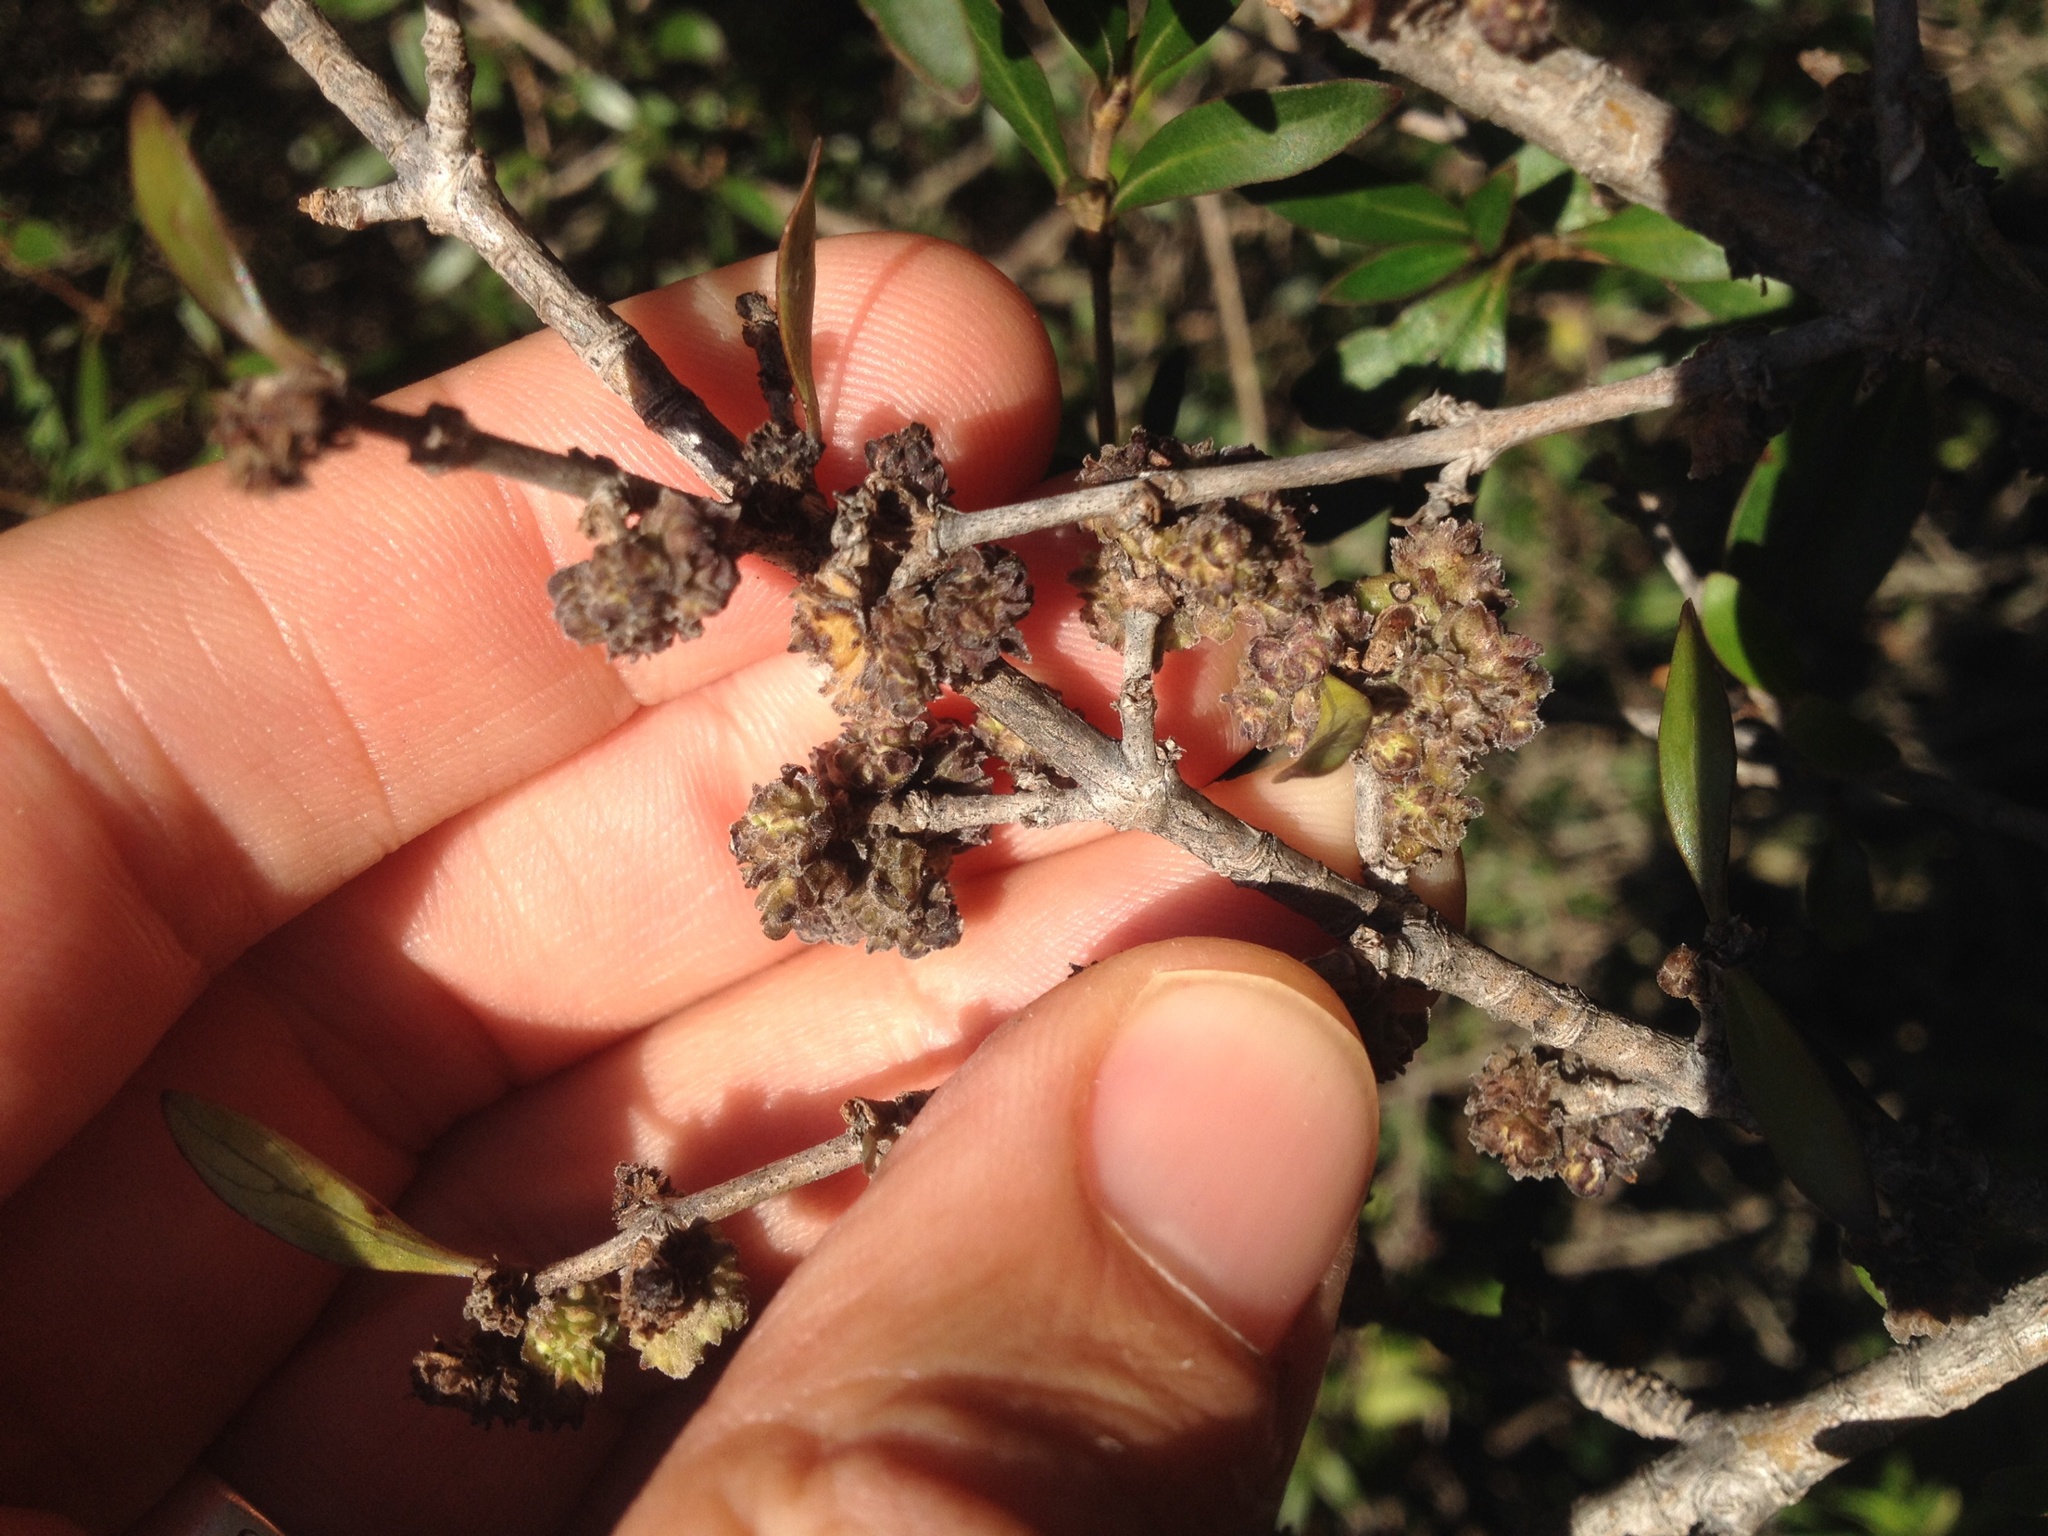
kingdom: Plantae
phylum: Tracheophyta
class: Magnoliopsida
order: Gentianales
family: Rubiaceae
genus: Coprosma
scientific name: Coprosma cunninghamii
